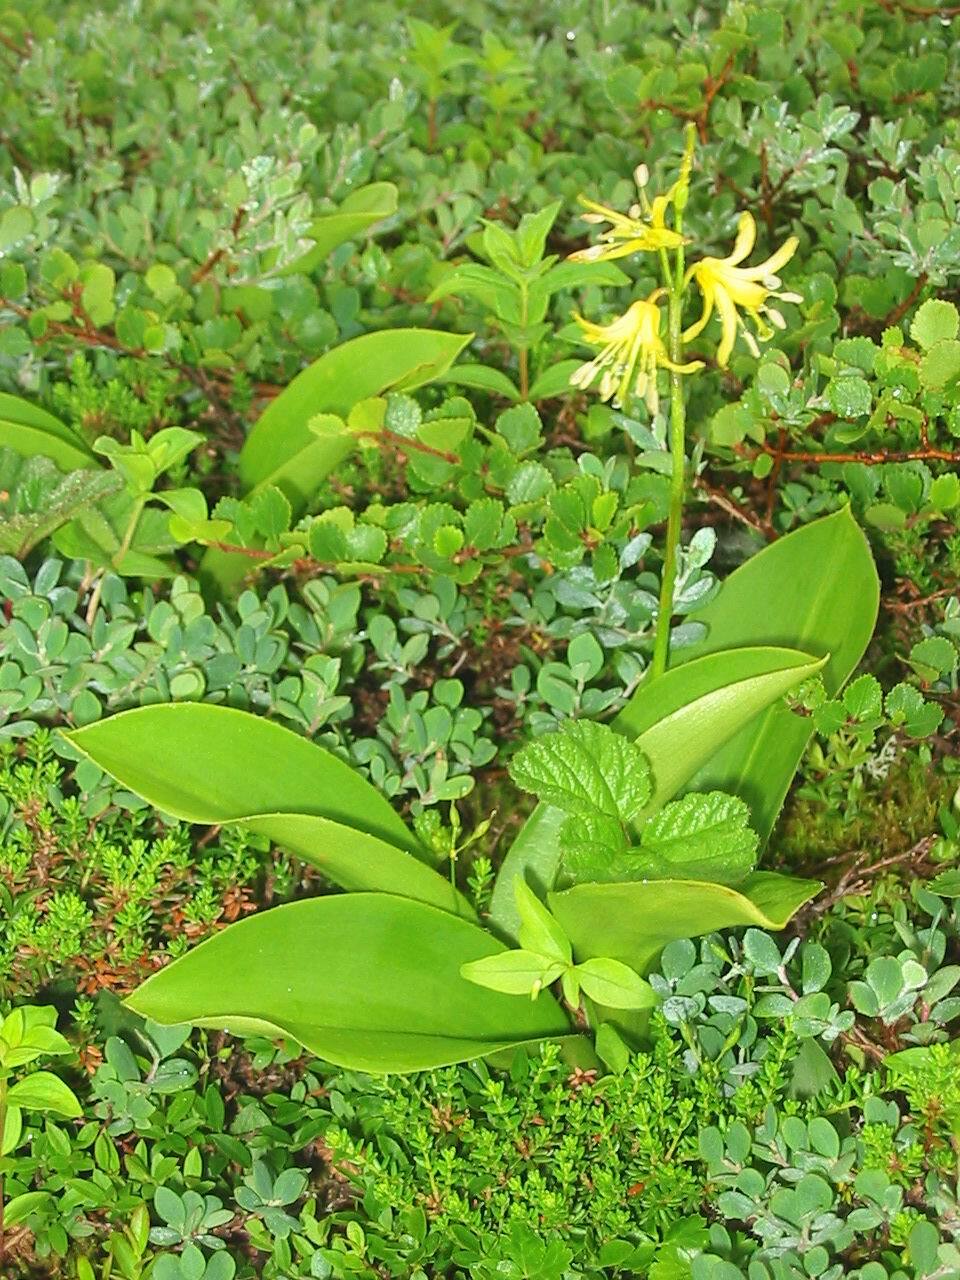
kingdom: Plantae
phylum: Tracheophyta
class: Liliopsida
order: Liliales
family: Liliaceae
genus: Clintonia
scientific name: Clintonia borealis
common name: Yellow clintonia
